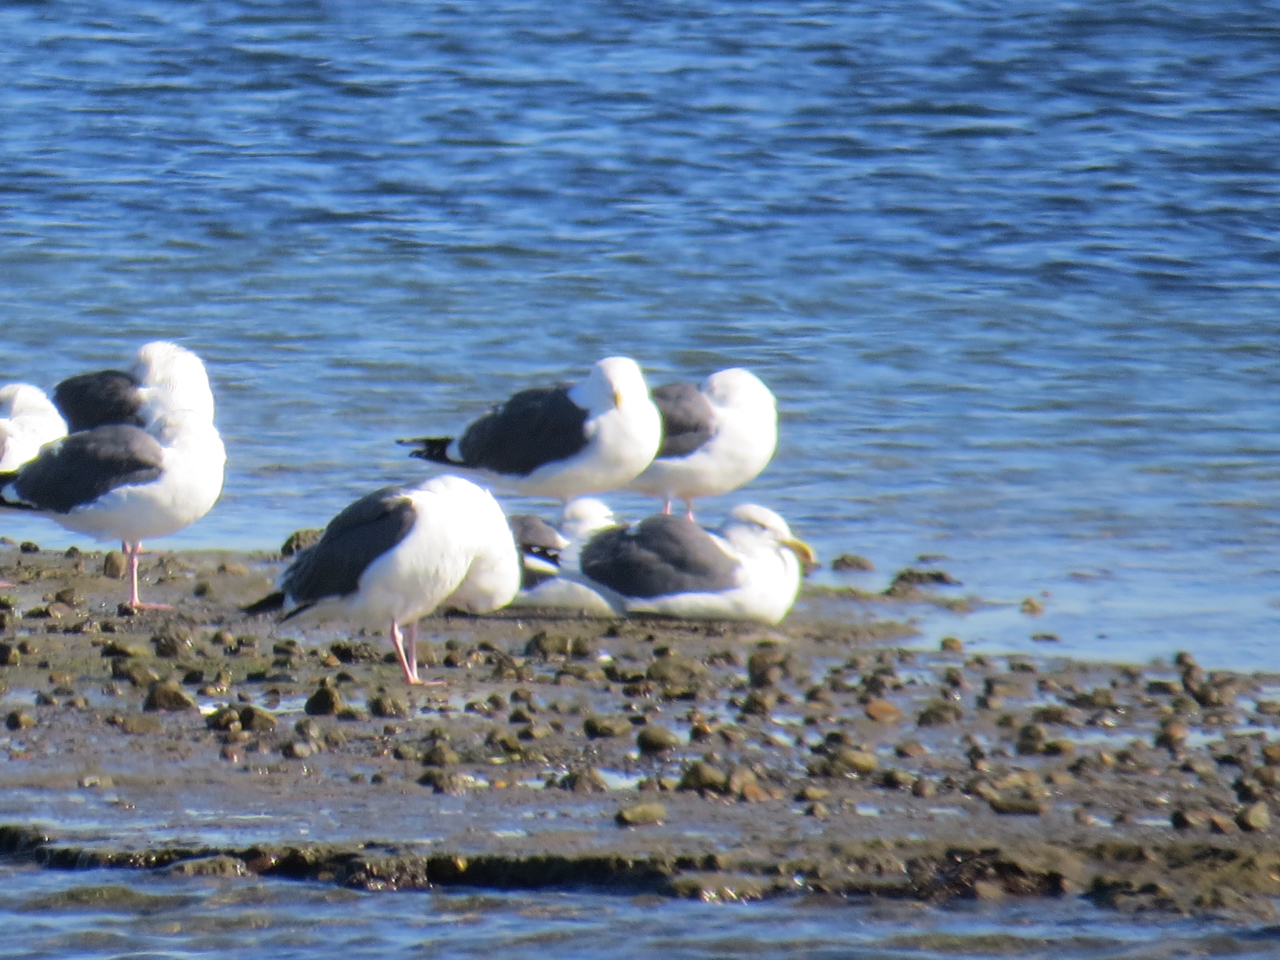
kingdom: Animalia
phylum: Chordata
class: Aves
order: Charadriiformes
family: Laridae
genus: Larus
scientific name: Larus occidentalis
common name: Western gull
